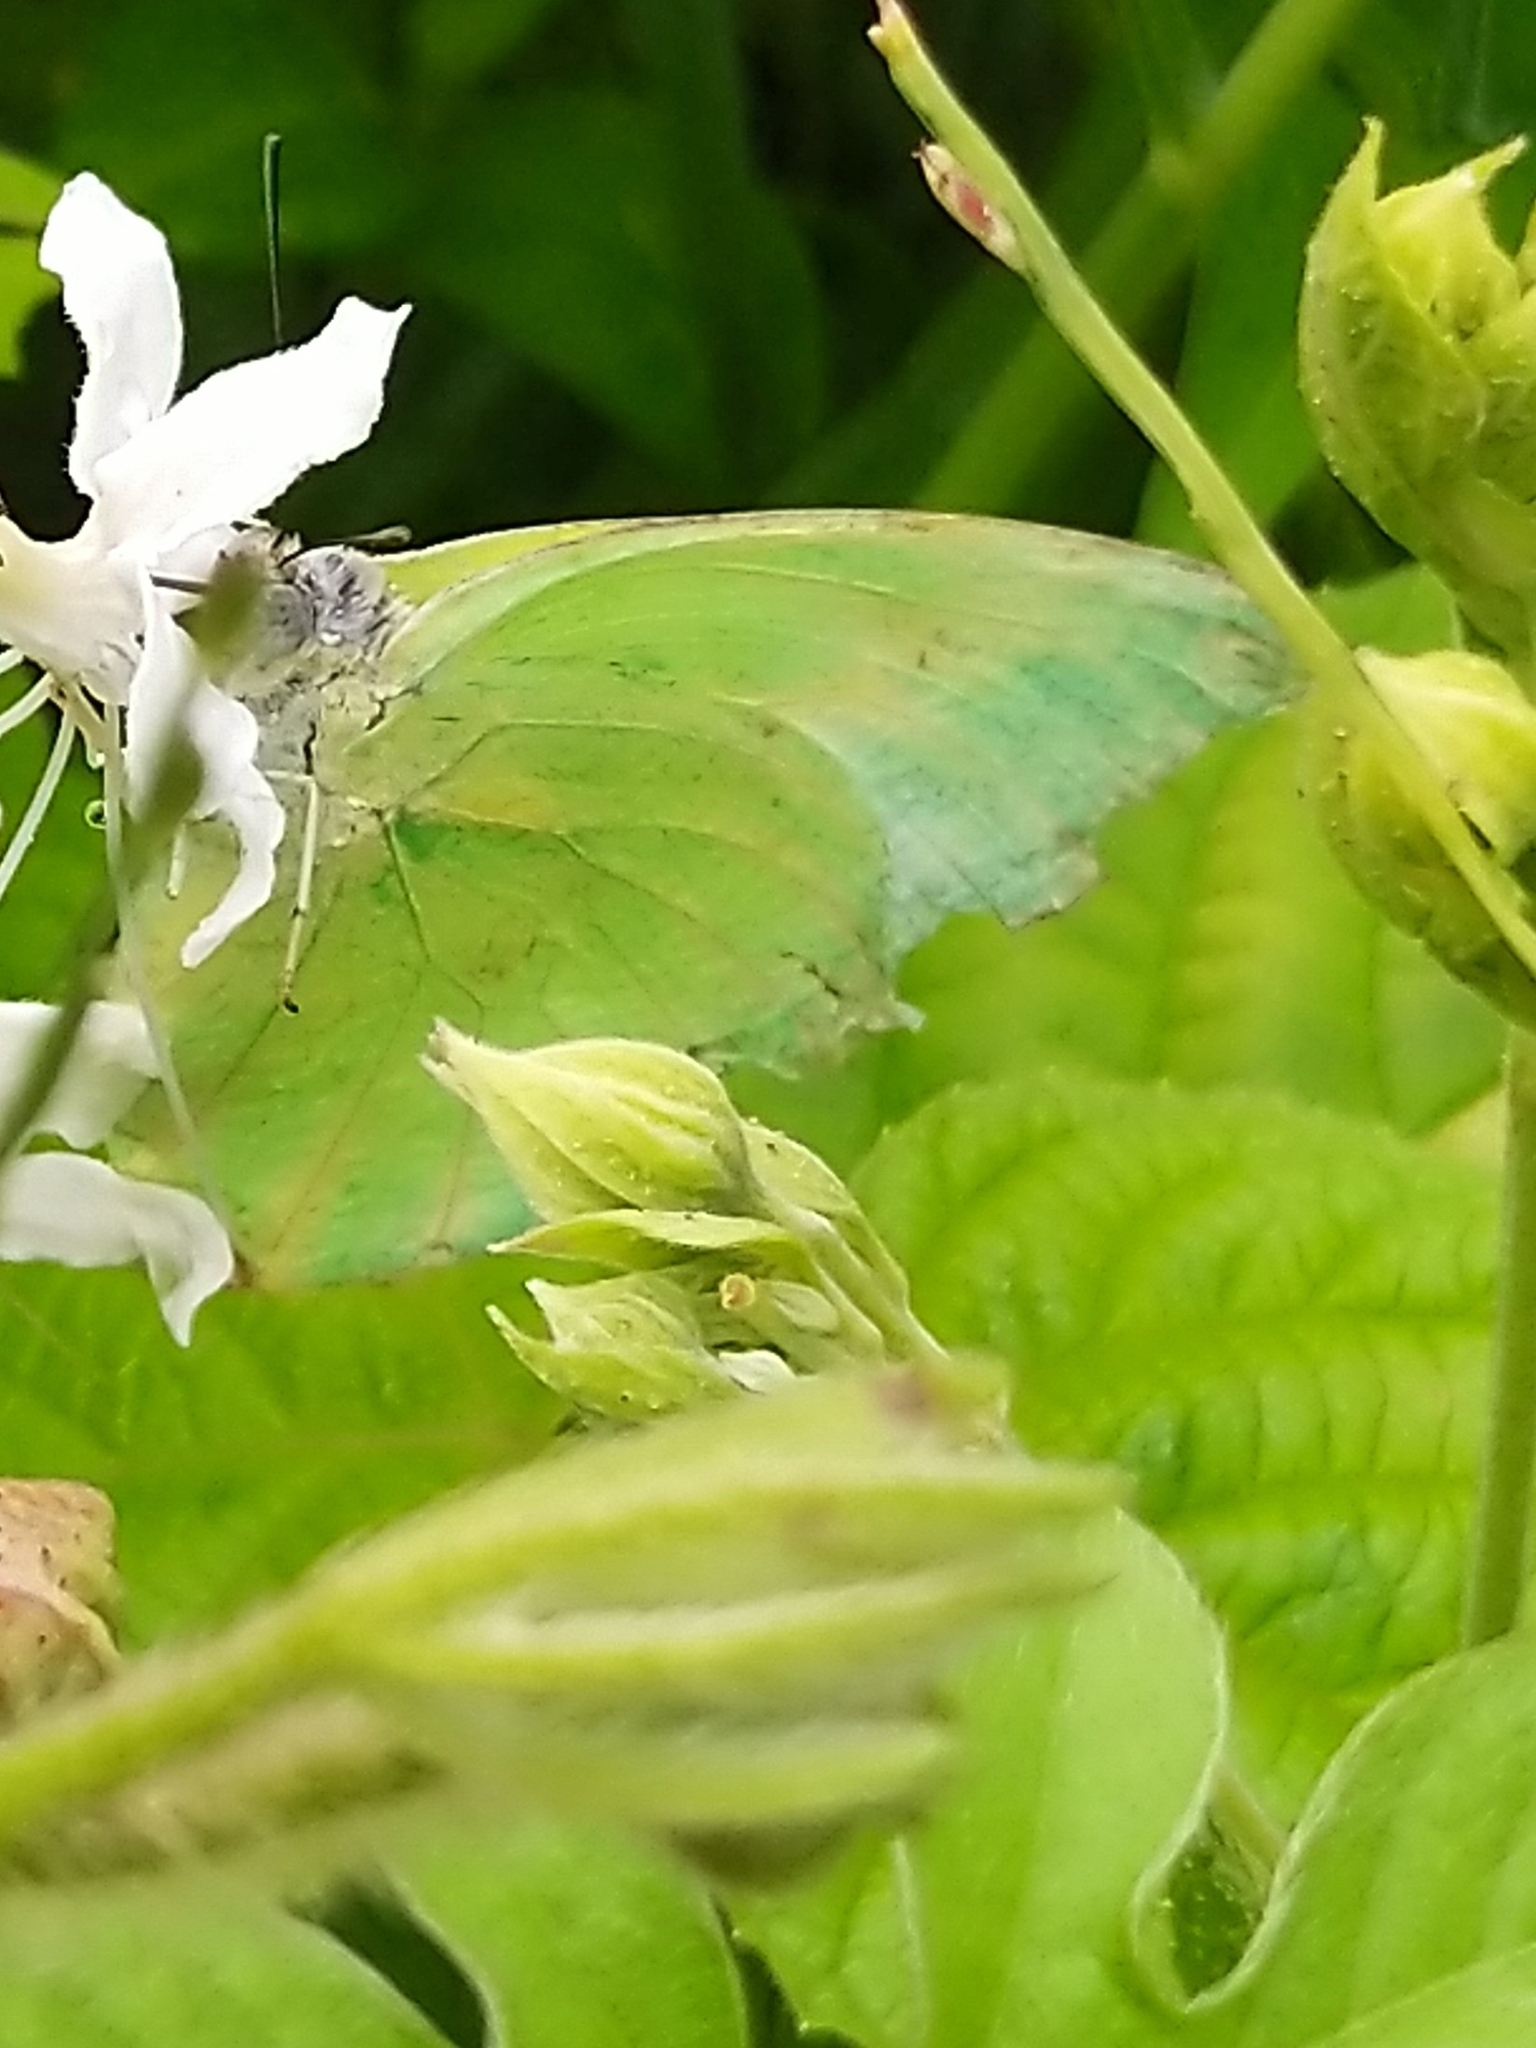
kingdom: Animalia
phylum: Arthropoda
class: Insecta
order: Lepidoptera
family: Pieridae
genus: Catopsilia
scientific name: Catopsilia pomona
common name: Common emigrant
